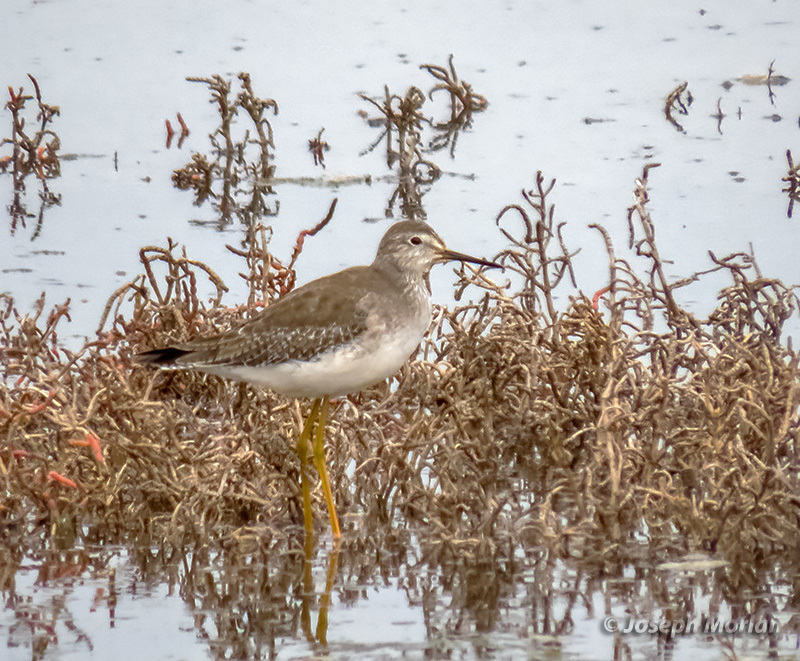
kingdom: Animalia
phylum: Chordata
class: Aves
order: Charadriiformes
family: Scolopacidae
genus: Tringa
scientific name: Tringa flavipes
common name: Lesser yellowlegs
